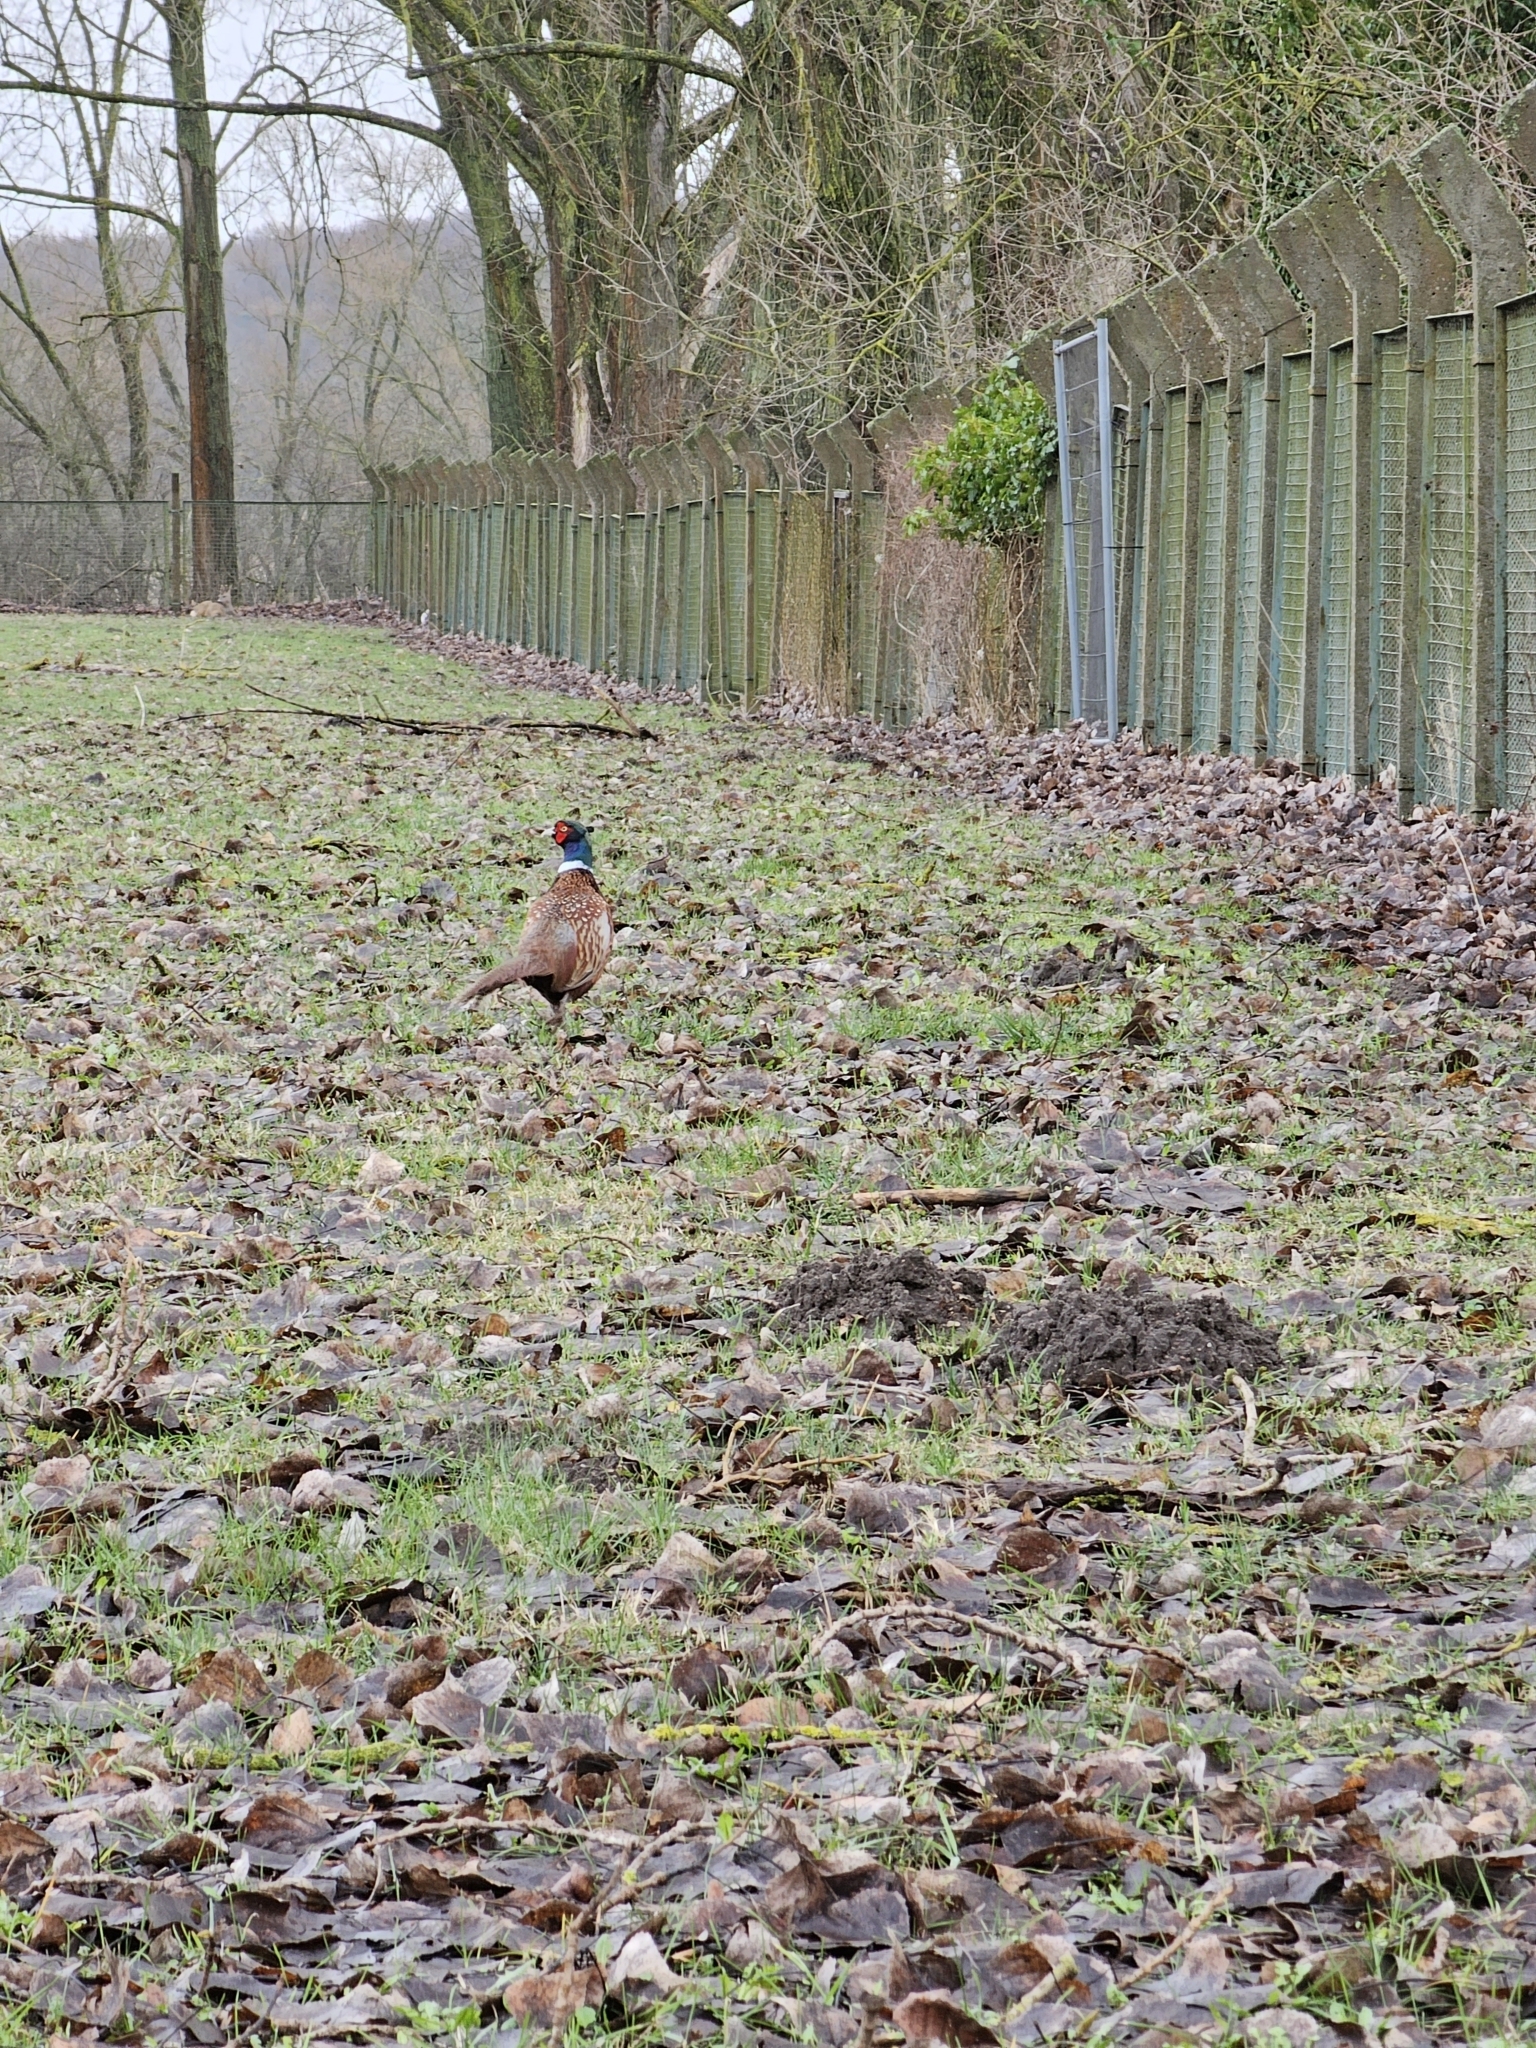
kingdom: Animalia
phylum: Chordata
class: Aves
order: Galliformes
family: Phasianidae
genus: Phasianus
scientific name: Phasianus colchicus
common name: Common pheasant
